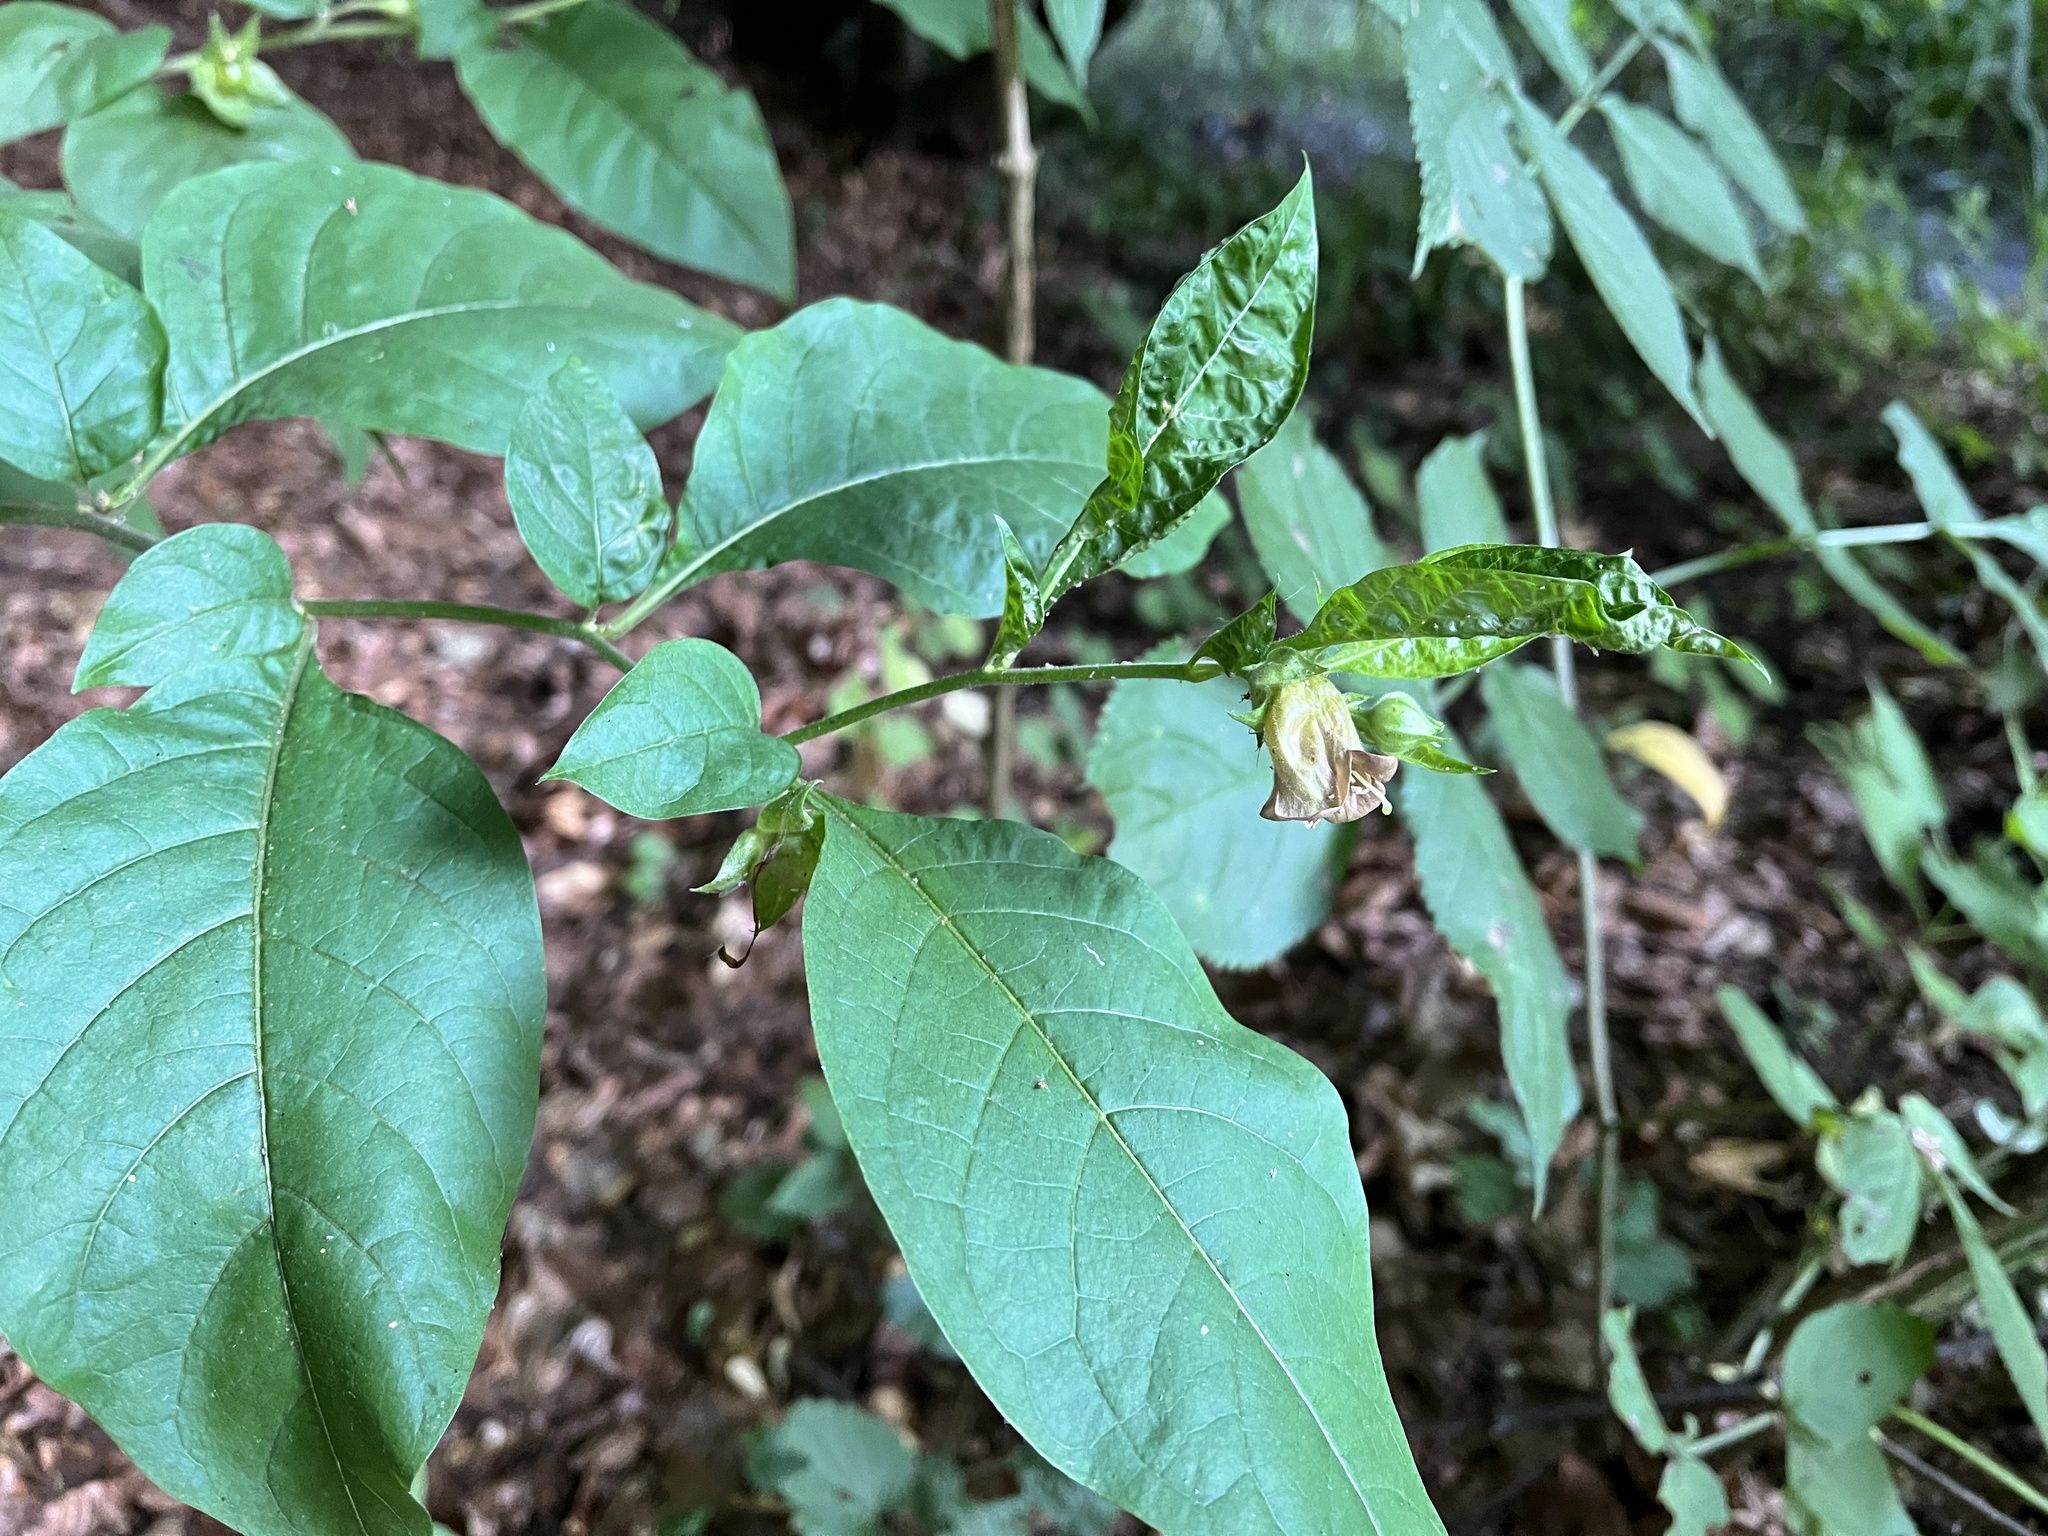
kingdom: Plantae
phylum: Tracheophyta
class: Magnoliopsida
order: Solanales
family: Solanaceae
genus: Atropa
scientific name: Atropa belladonna
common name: Deadly nightshade
